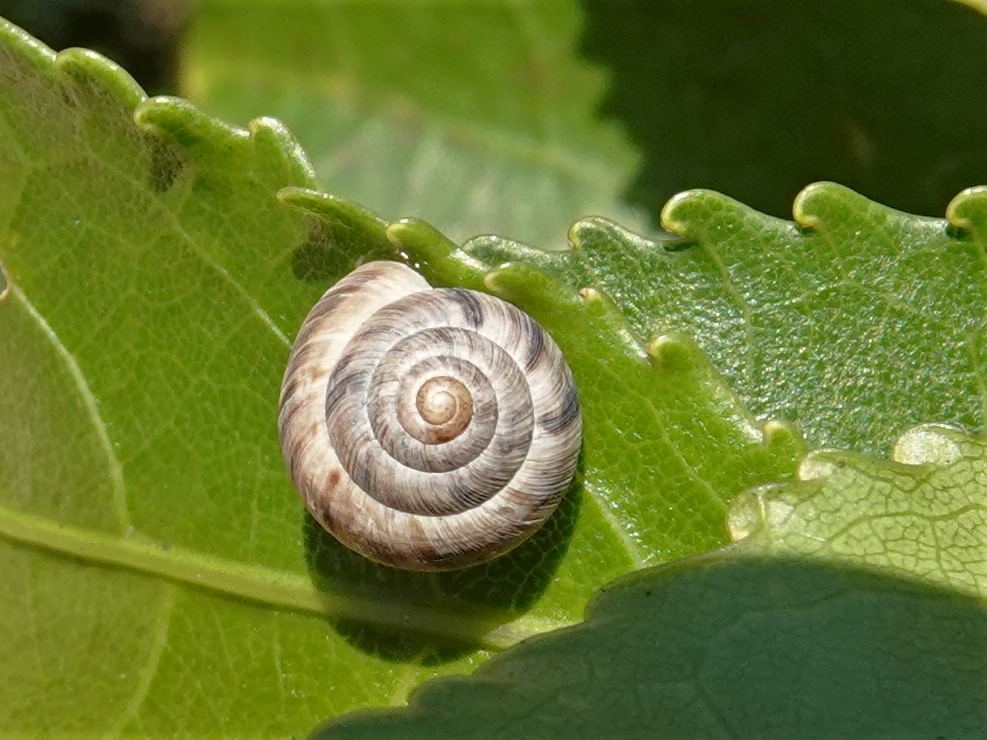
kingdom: Animalia
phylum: Mollusca
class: Gastropoda
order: Stylommatophora
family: Charopidae
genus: Serpho
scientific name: Serpho
